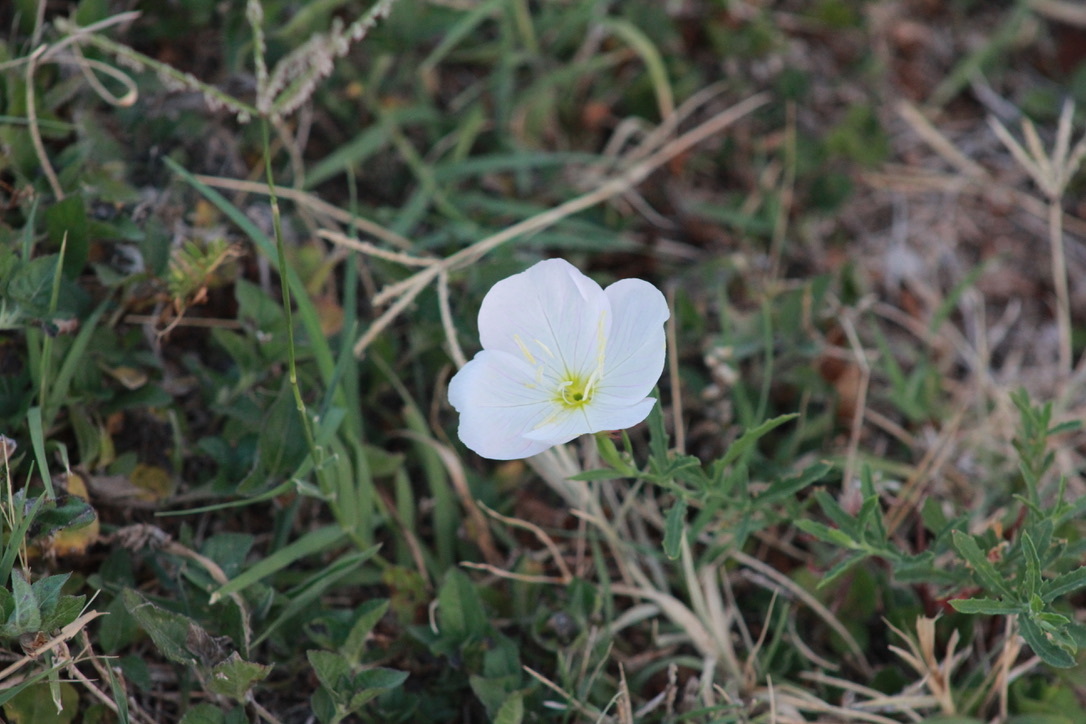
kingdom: Plantae
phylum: Tracheophyta
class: Magnoliopsida
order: Myrtales
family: Onagraceae
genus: Oenothera
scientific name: Oenothera speciosa
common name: White evening-primrose
